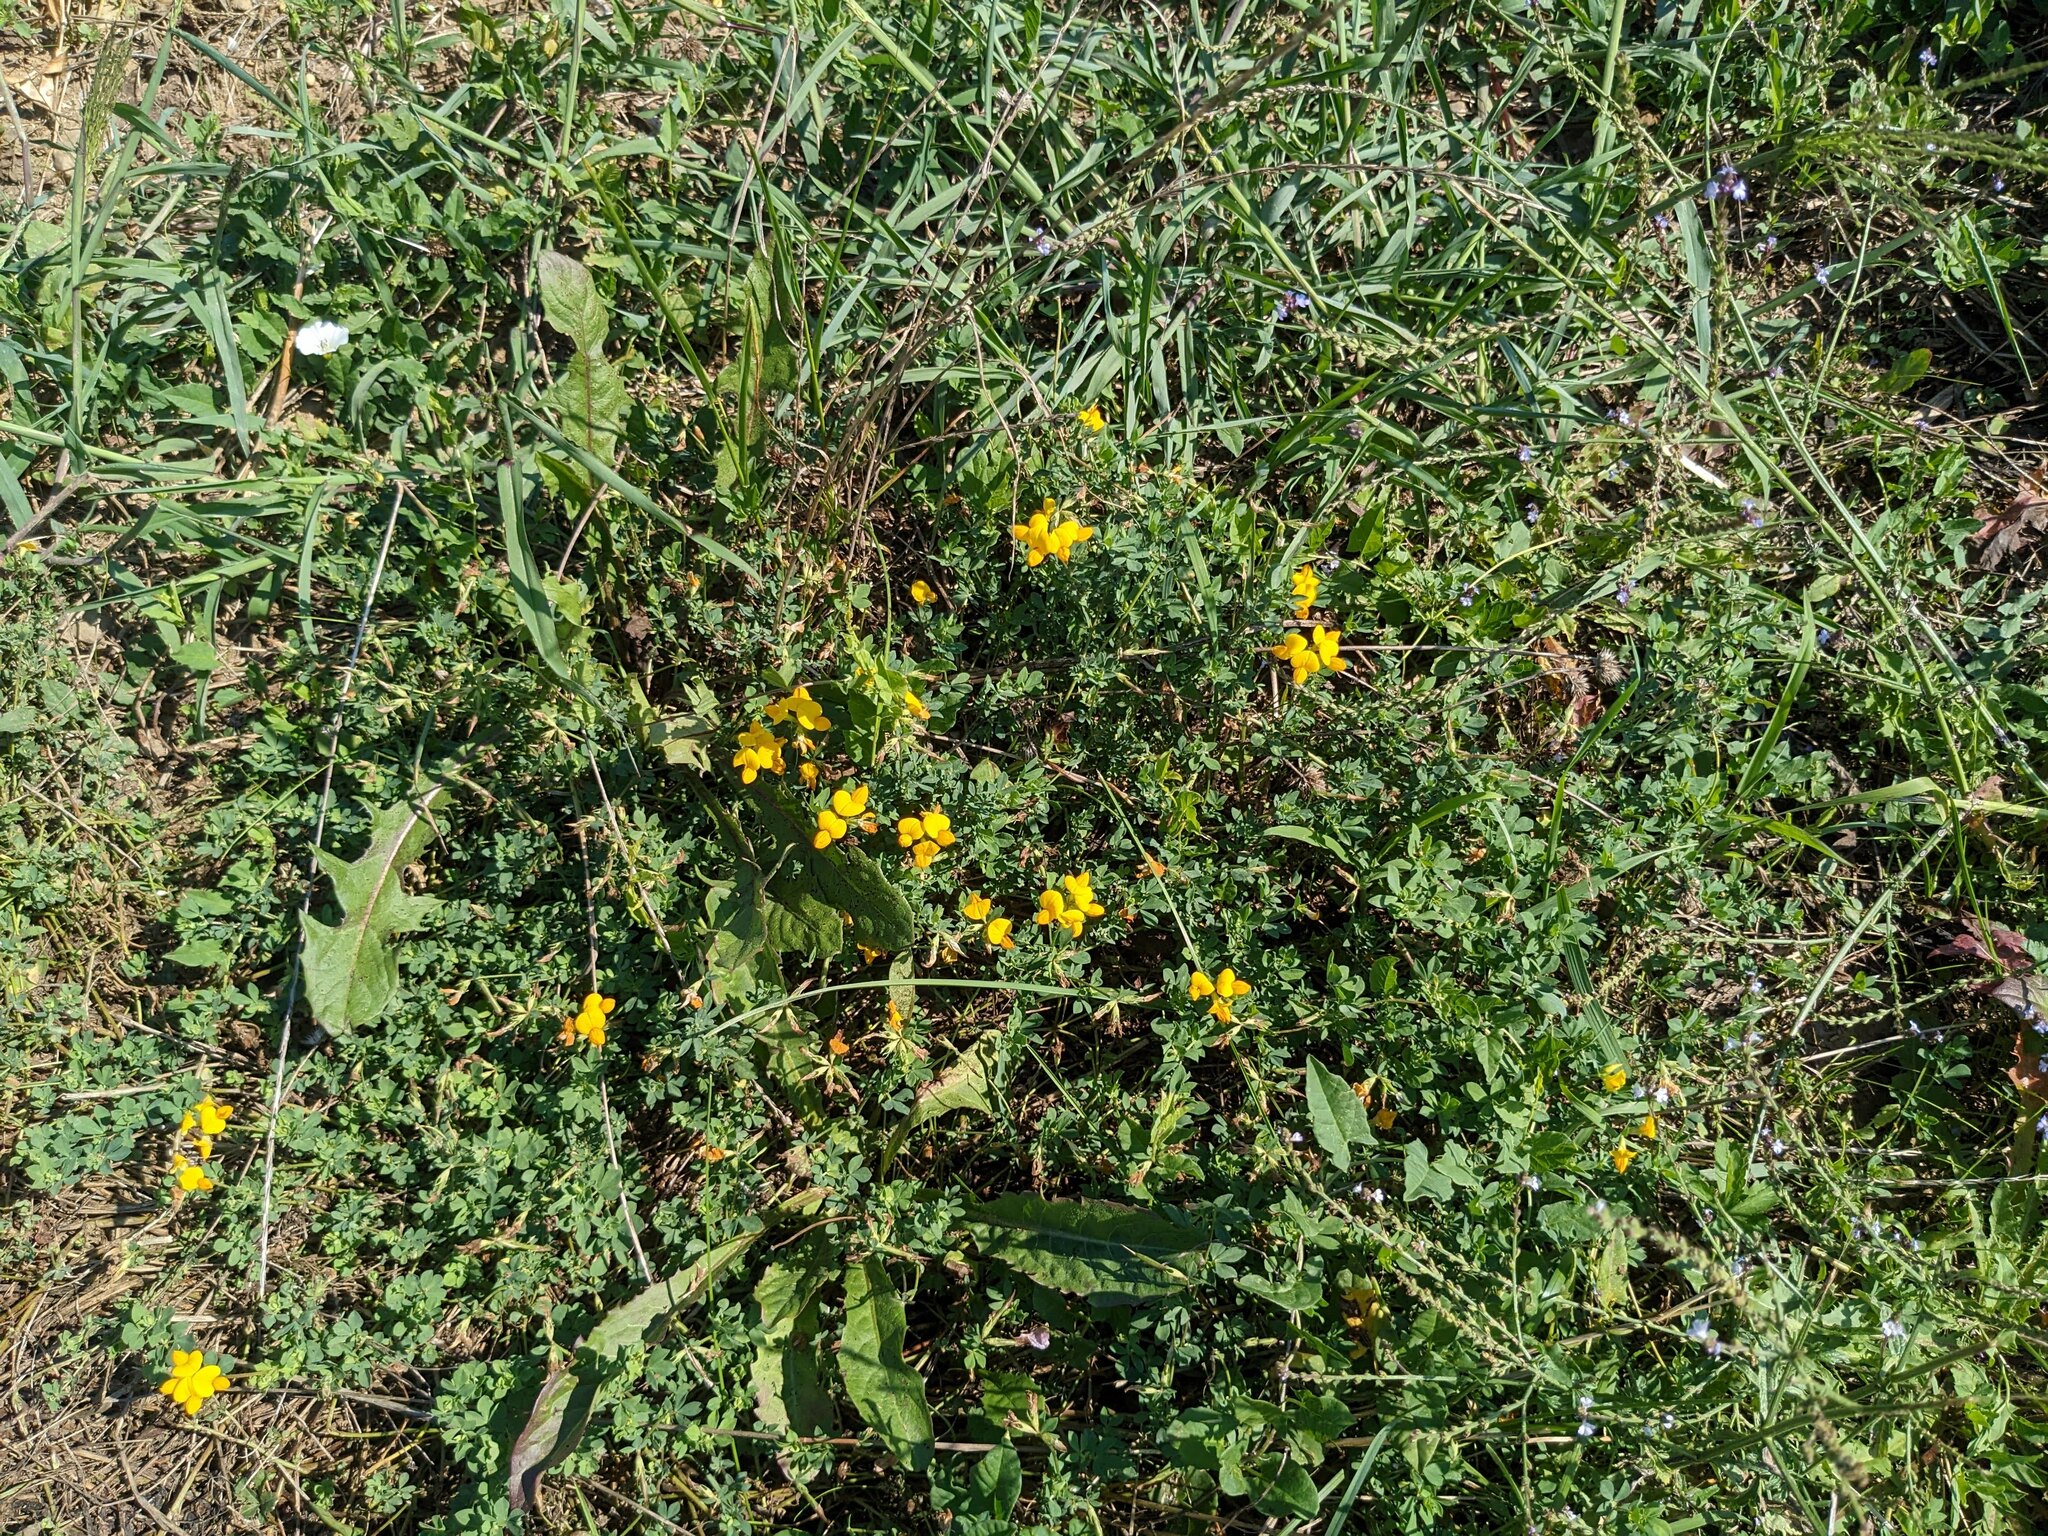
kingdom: Plantae
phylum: Tracheophyta
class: Magnoliopsida
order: Fabales
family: Fabaceae
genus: Lotus
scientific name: Lotus corniculatus
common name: Common bird's-foot-trefoil
